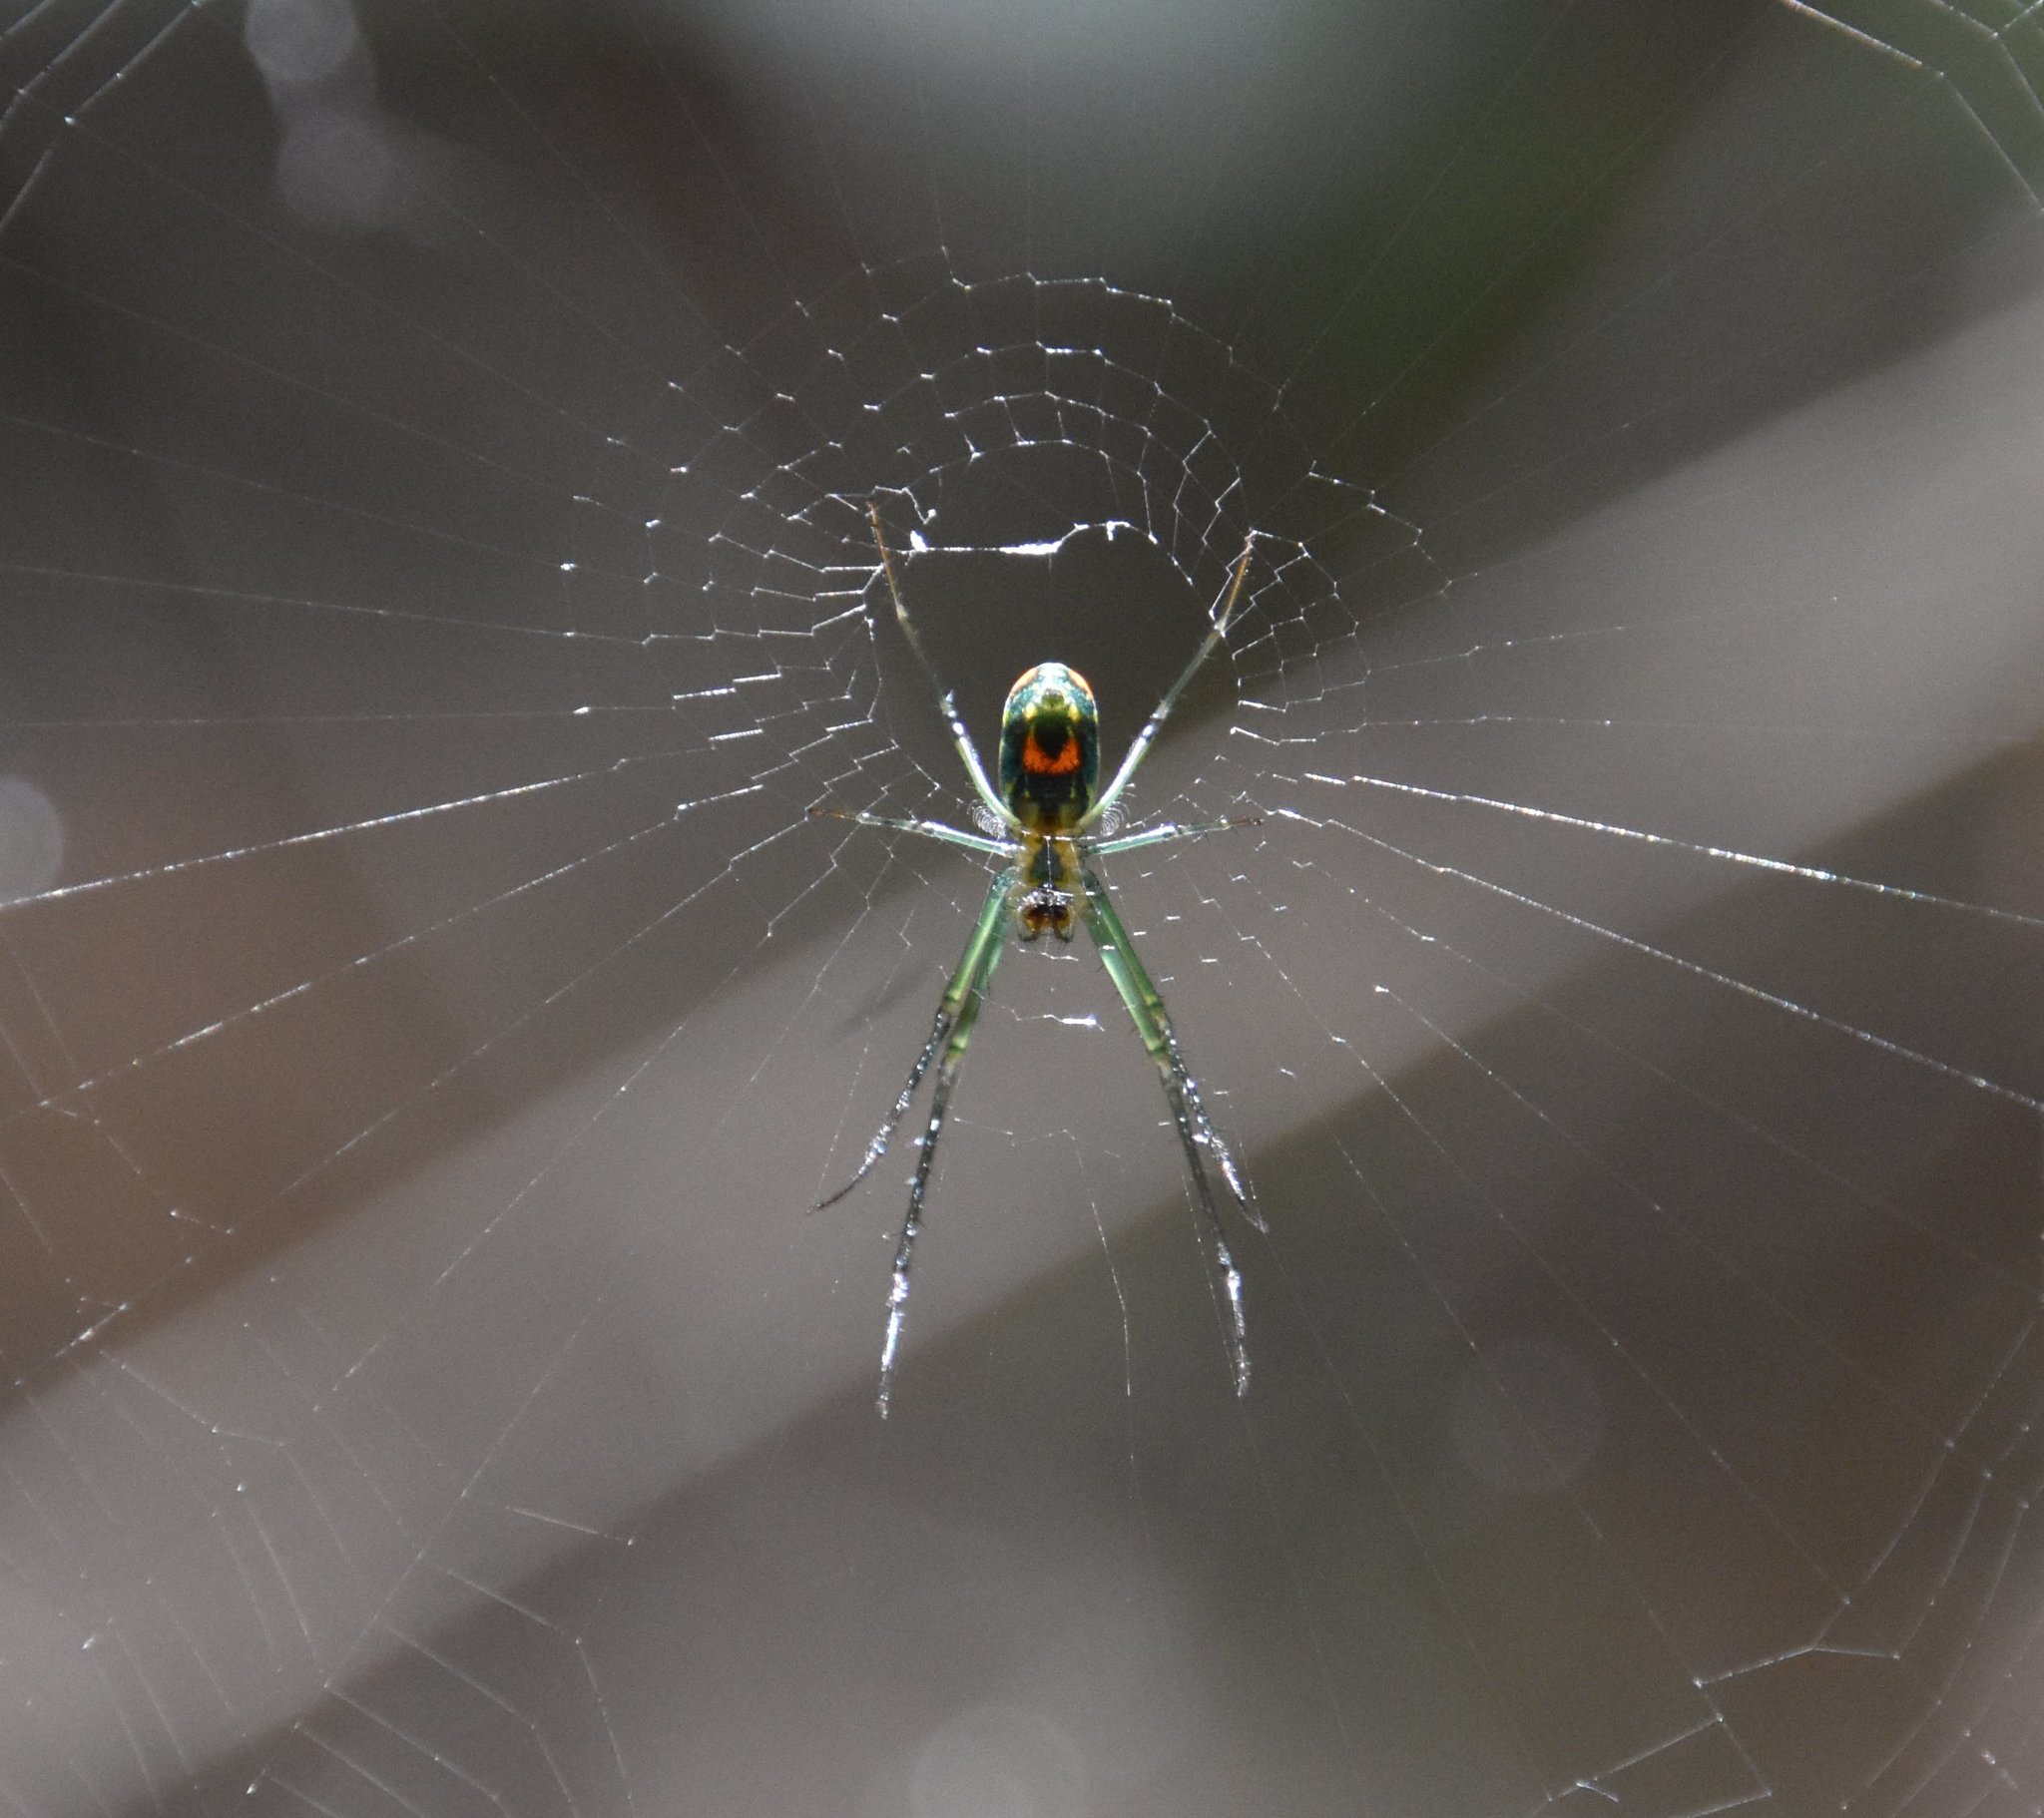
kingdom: Animalia
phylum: Arthropoda
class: Arachnida
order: Araneae
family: Tetragnathidae
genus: Leucauge
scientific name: Leucauge argyrobapta
